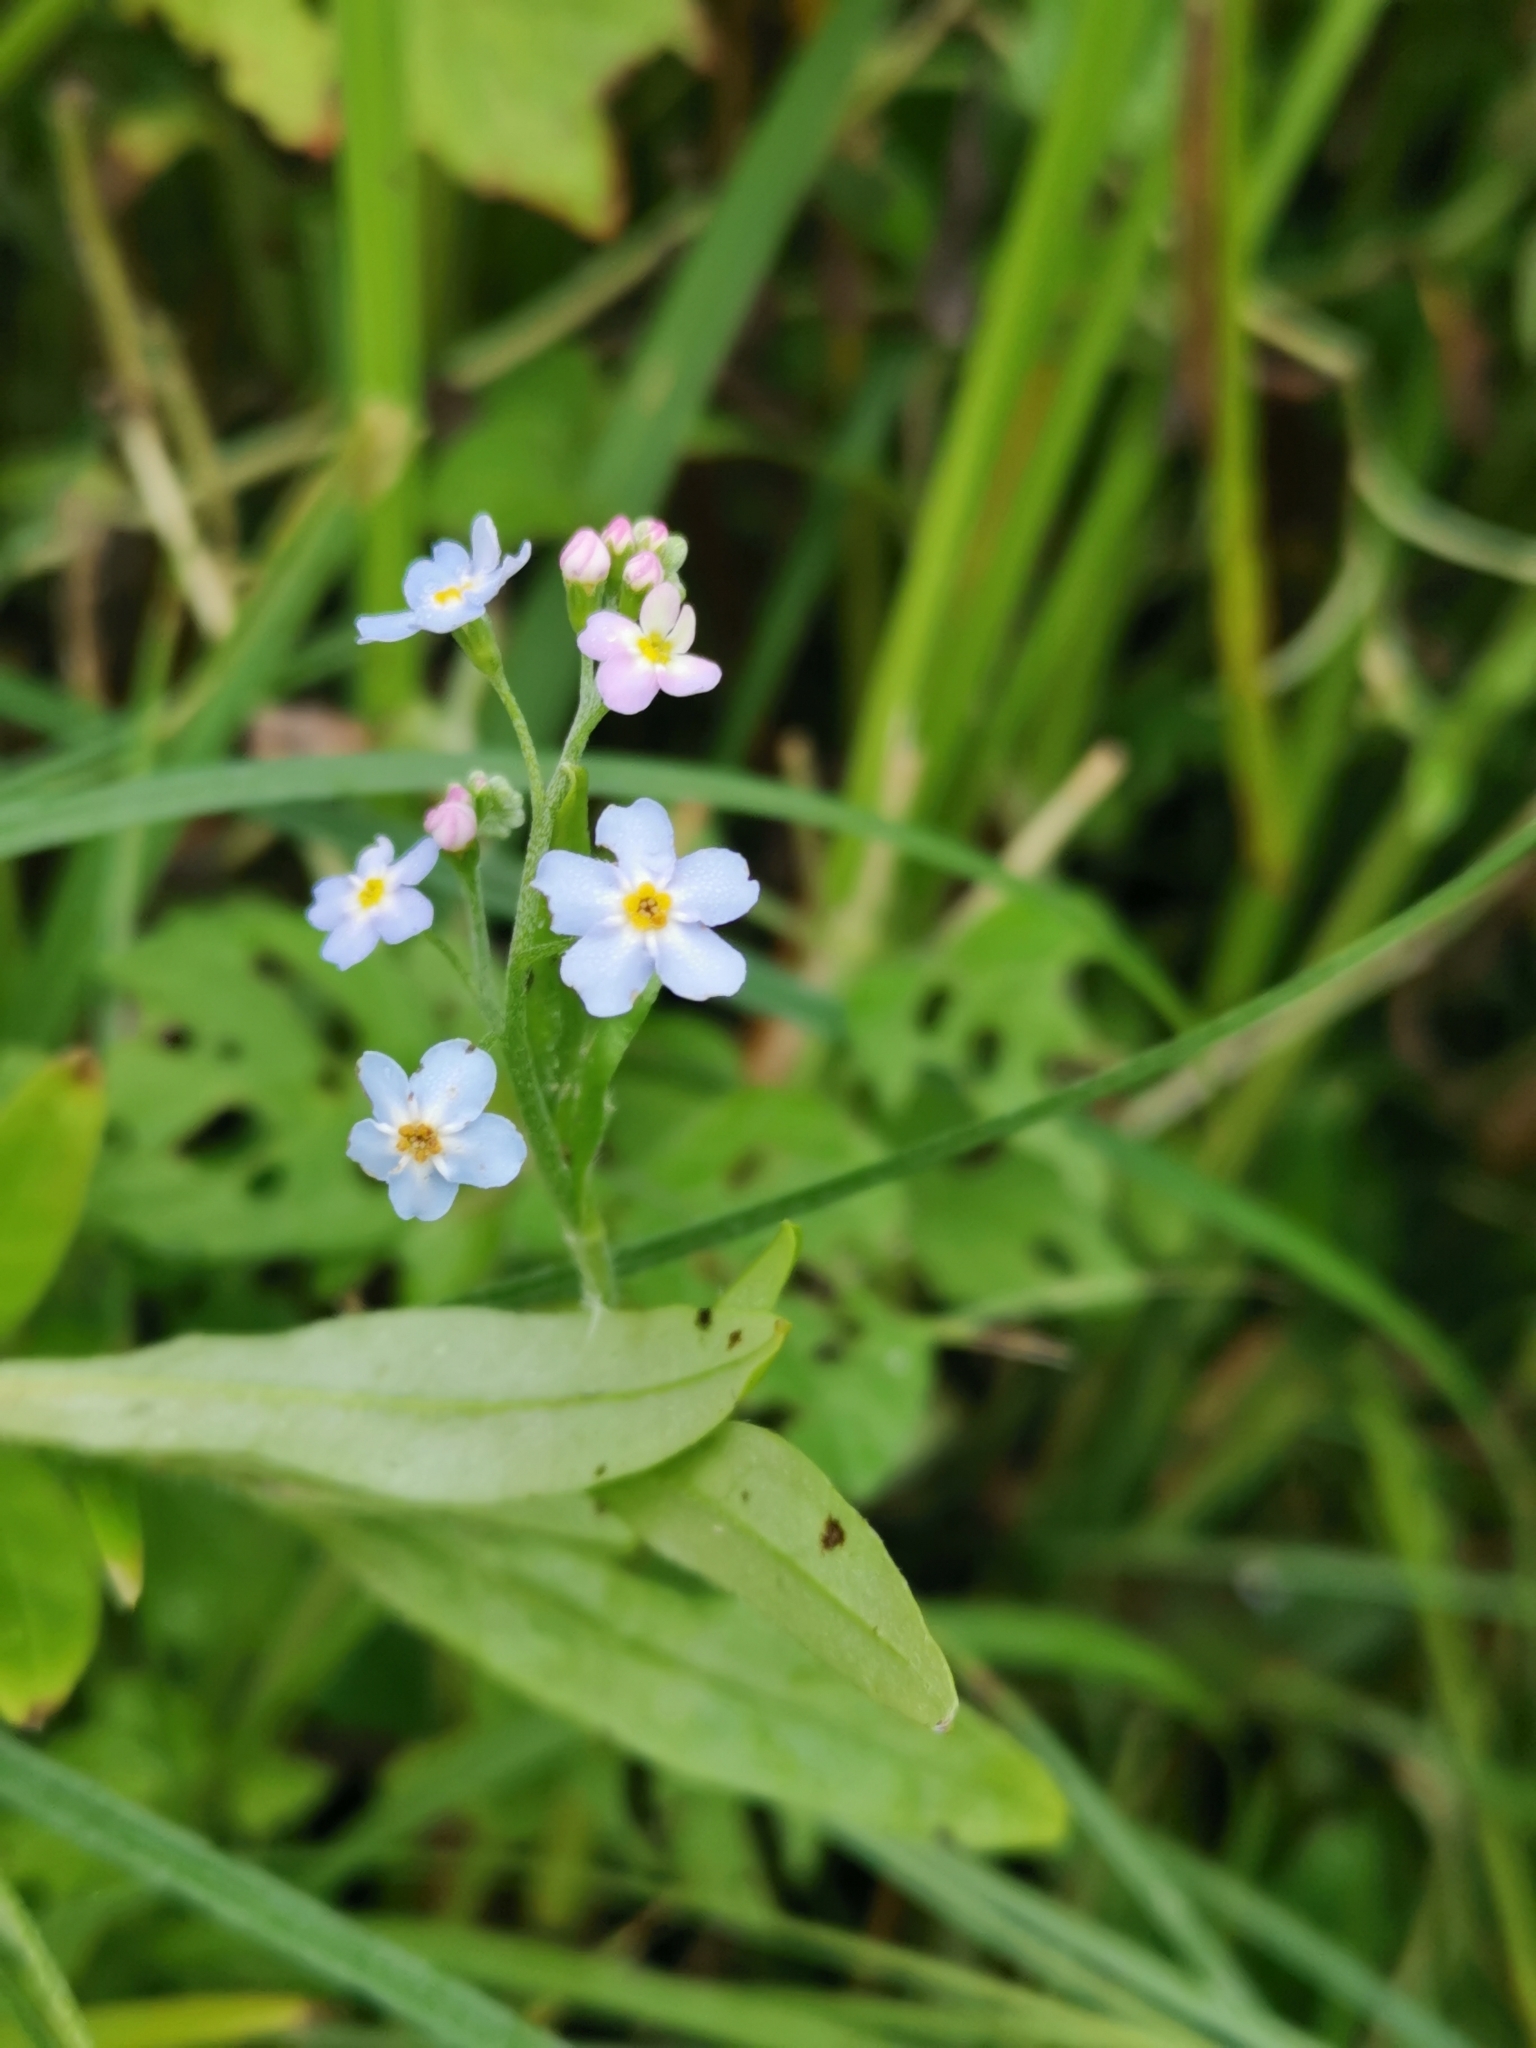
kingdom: Plantae
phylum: Tracheophyta
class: Magnoliopsida
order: Boraginales
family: Boraginaceae
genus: Myosotis
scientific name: Myosotis scorpioides
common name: Water forget-me-not
